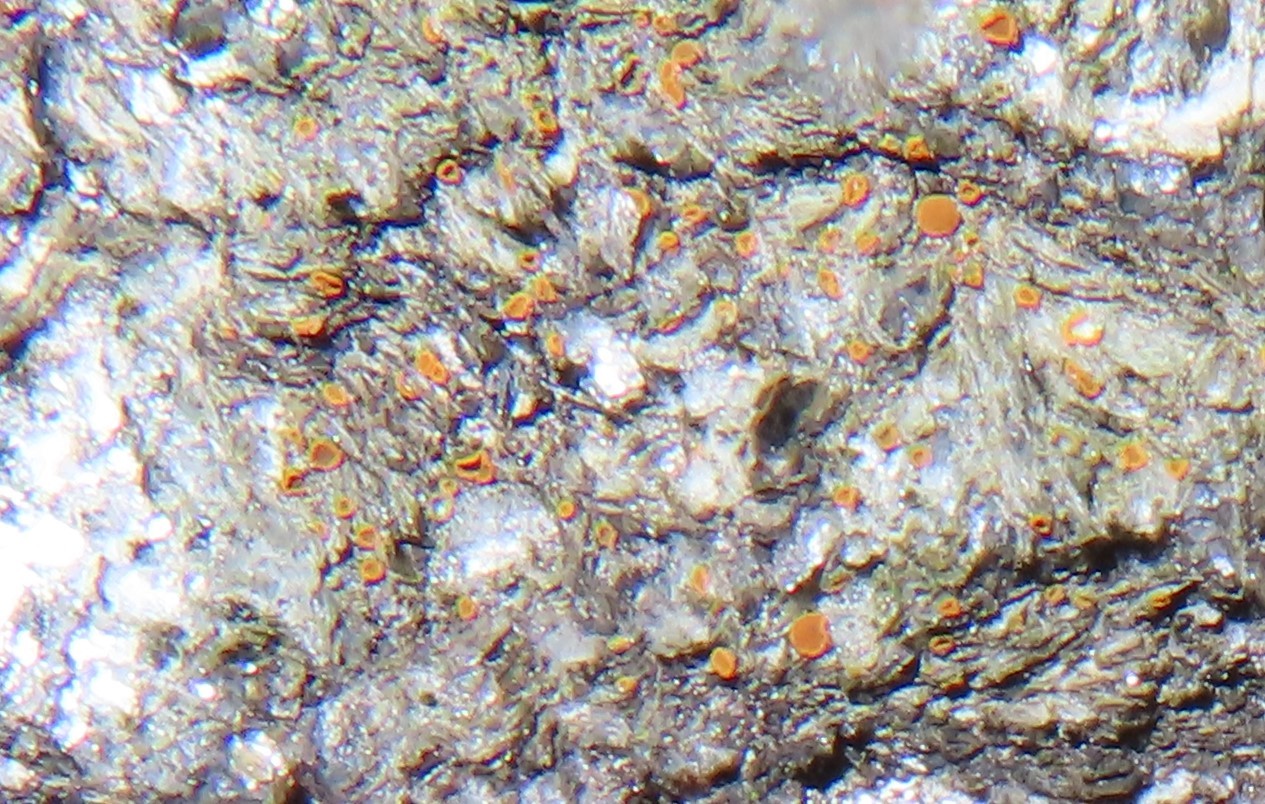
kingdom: Fungi
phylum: Ascomycota
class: Sareomycetes
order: Sareales
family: Sareaceae
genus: Sarea
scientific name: Sarea resinae
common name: Sarea lichen
